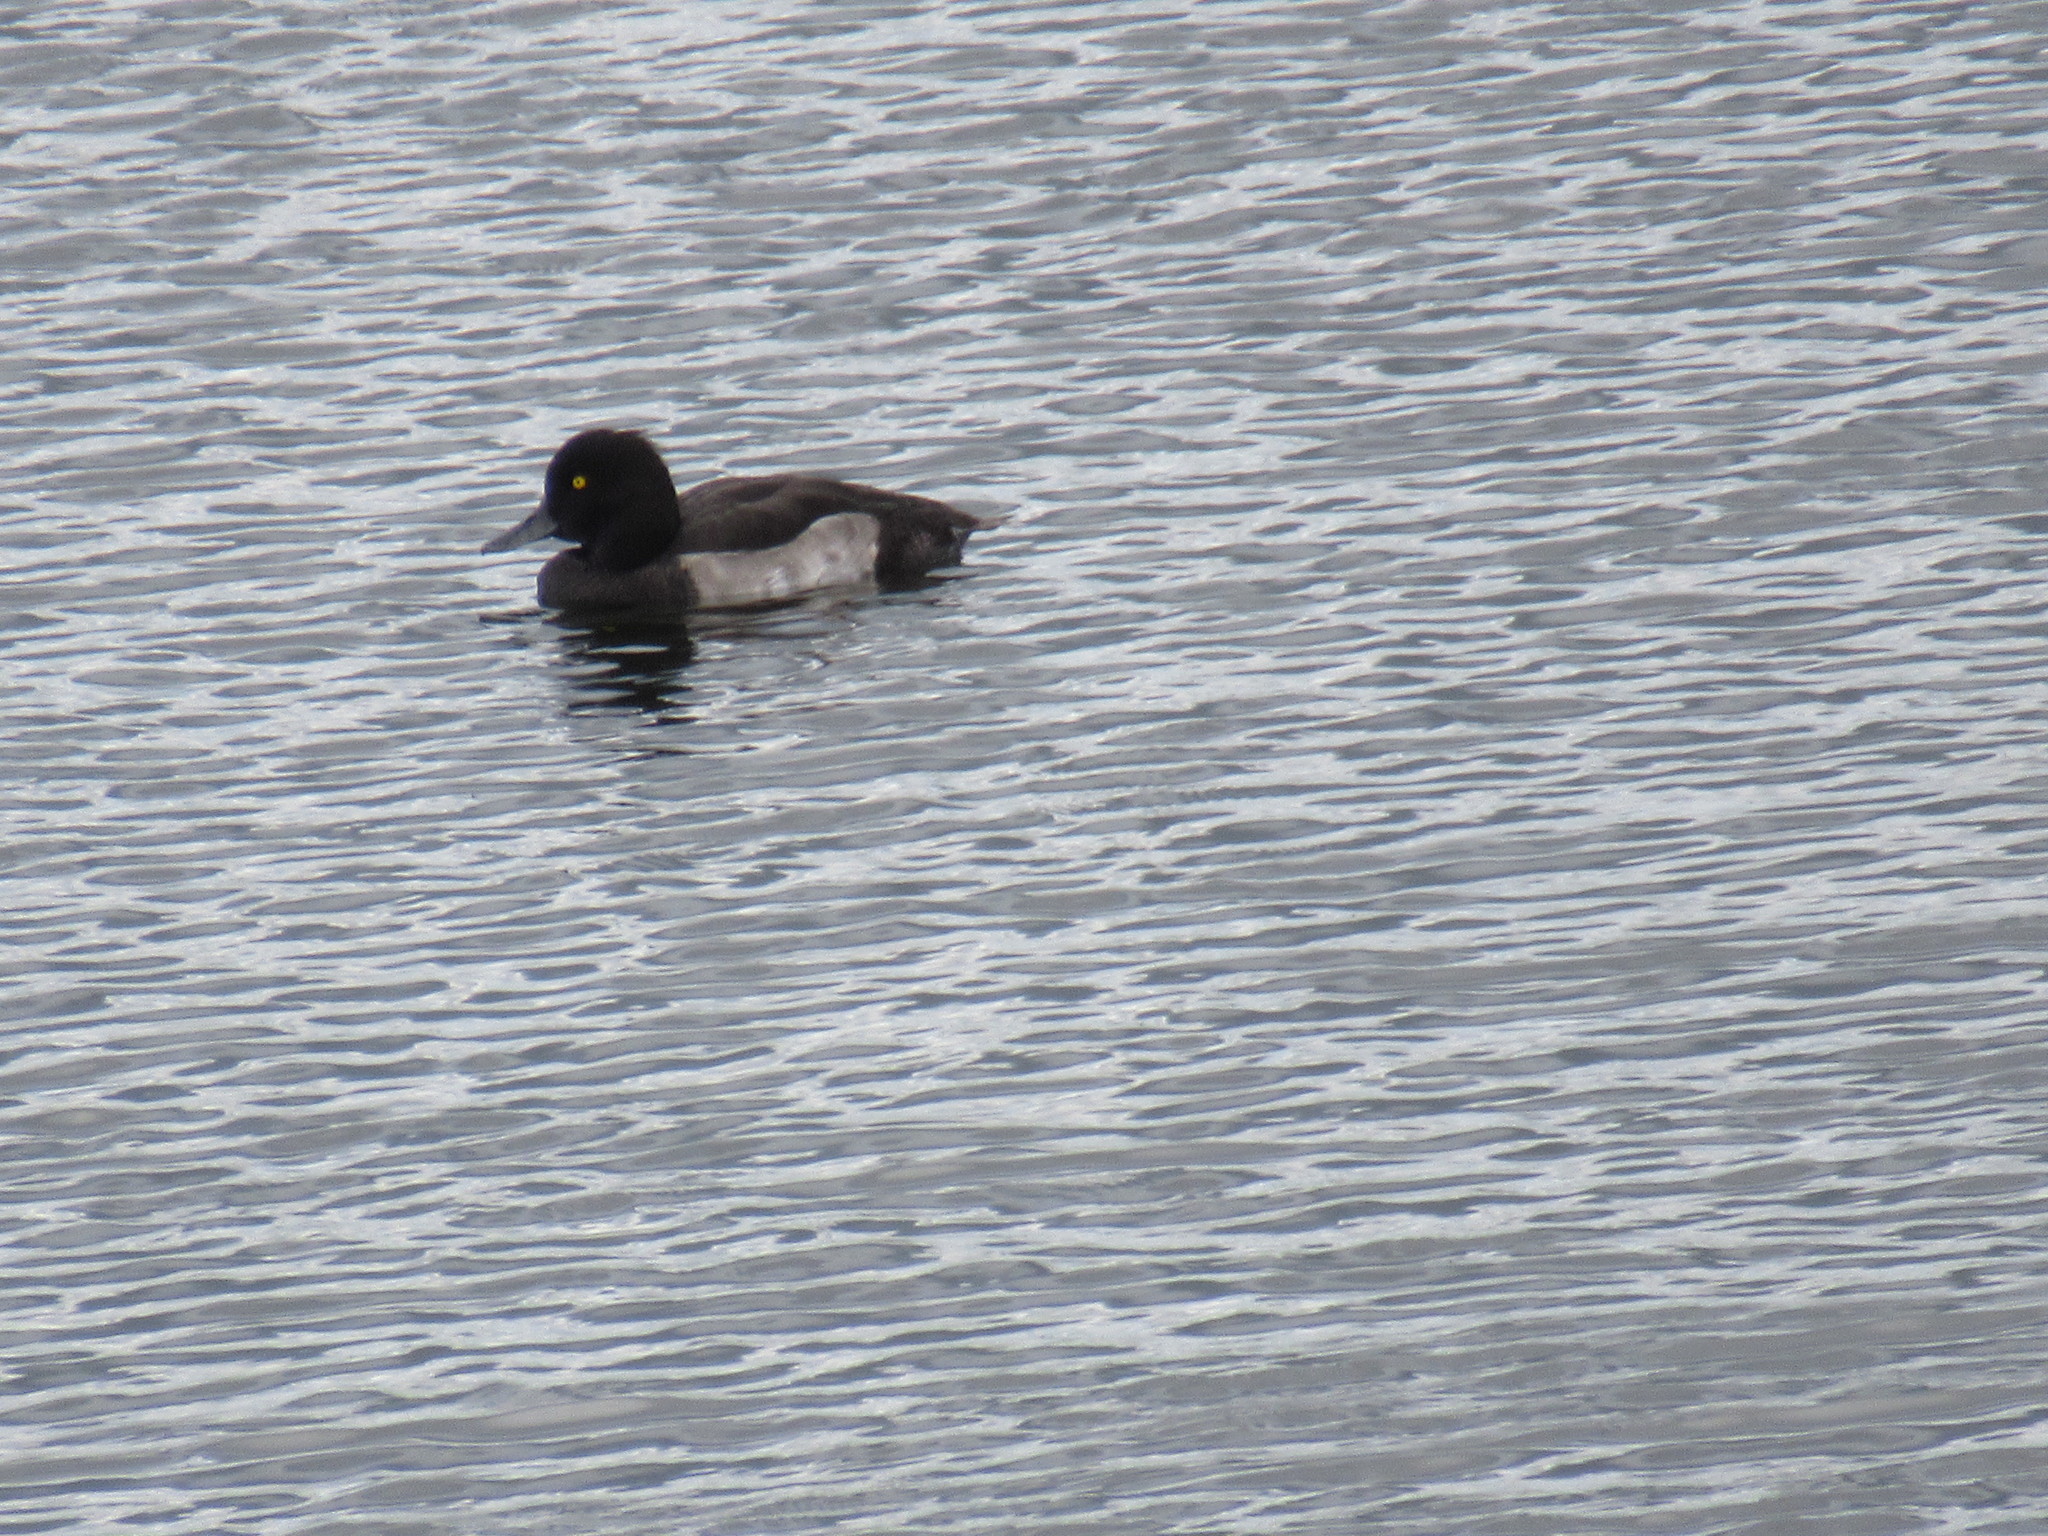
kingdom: Animalia
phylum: Chordata
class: Aves
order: Anseriformes
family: Anatidae
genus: Aythya
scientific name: Aythya fuligula
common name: Tufted duck
